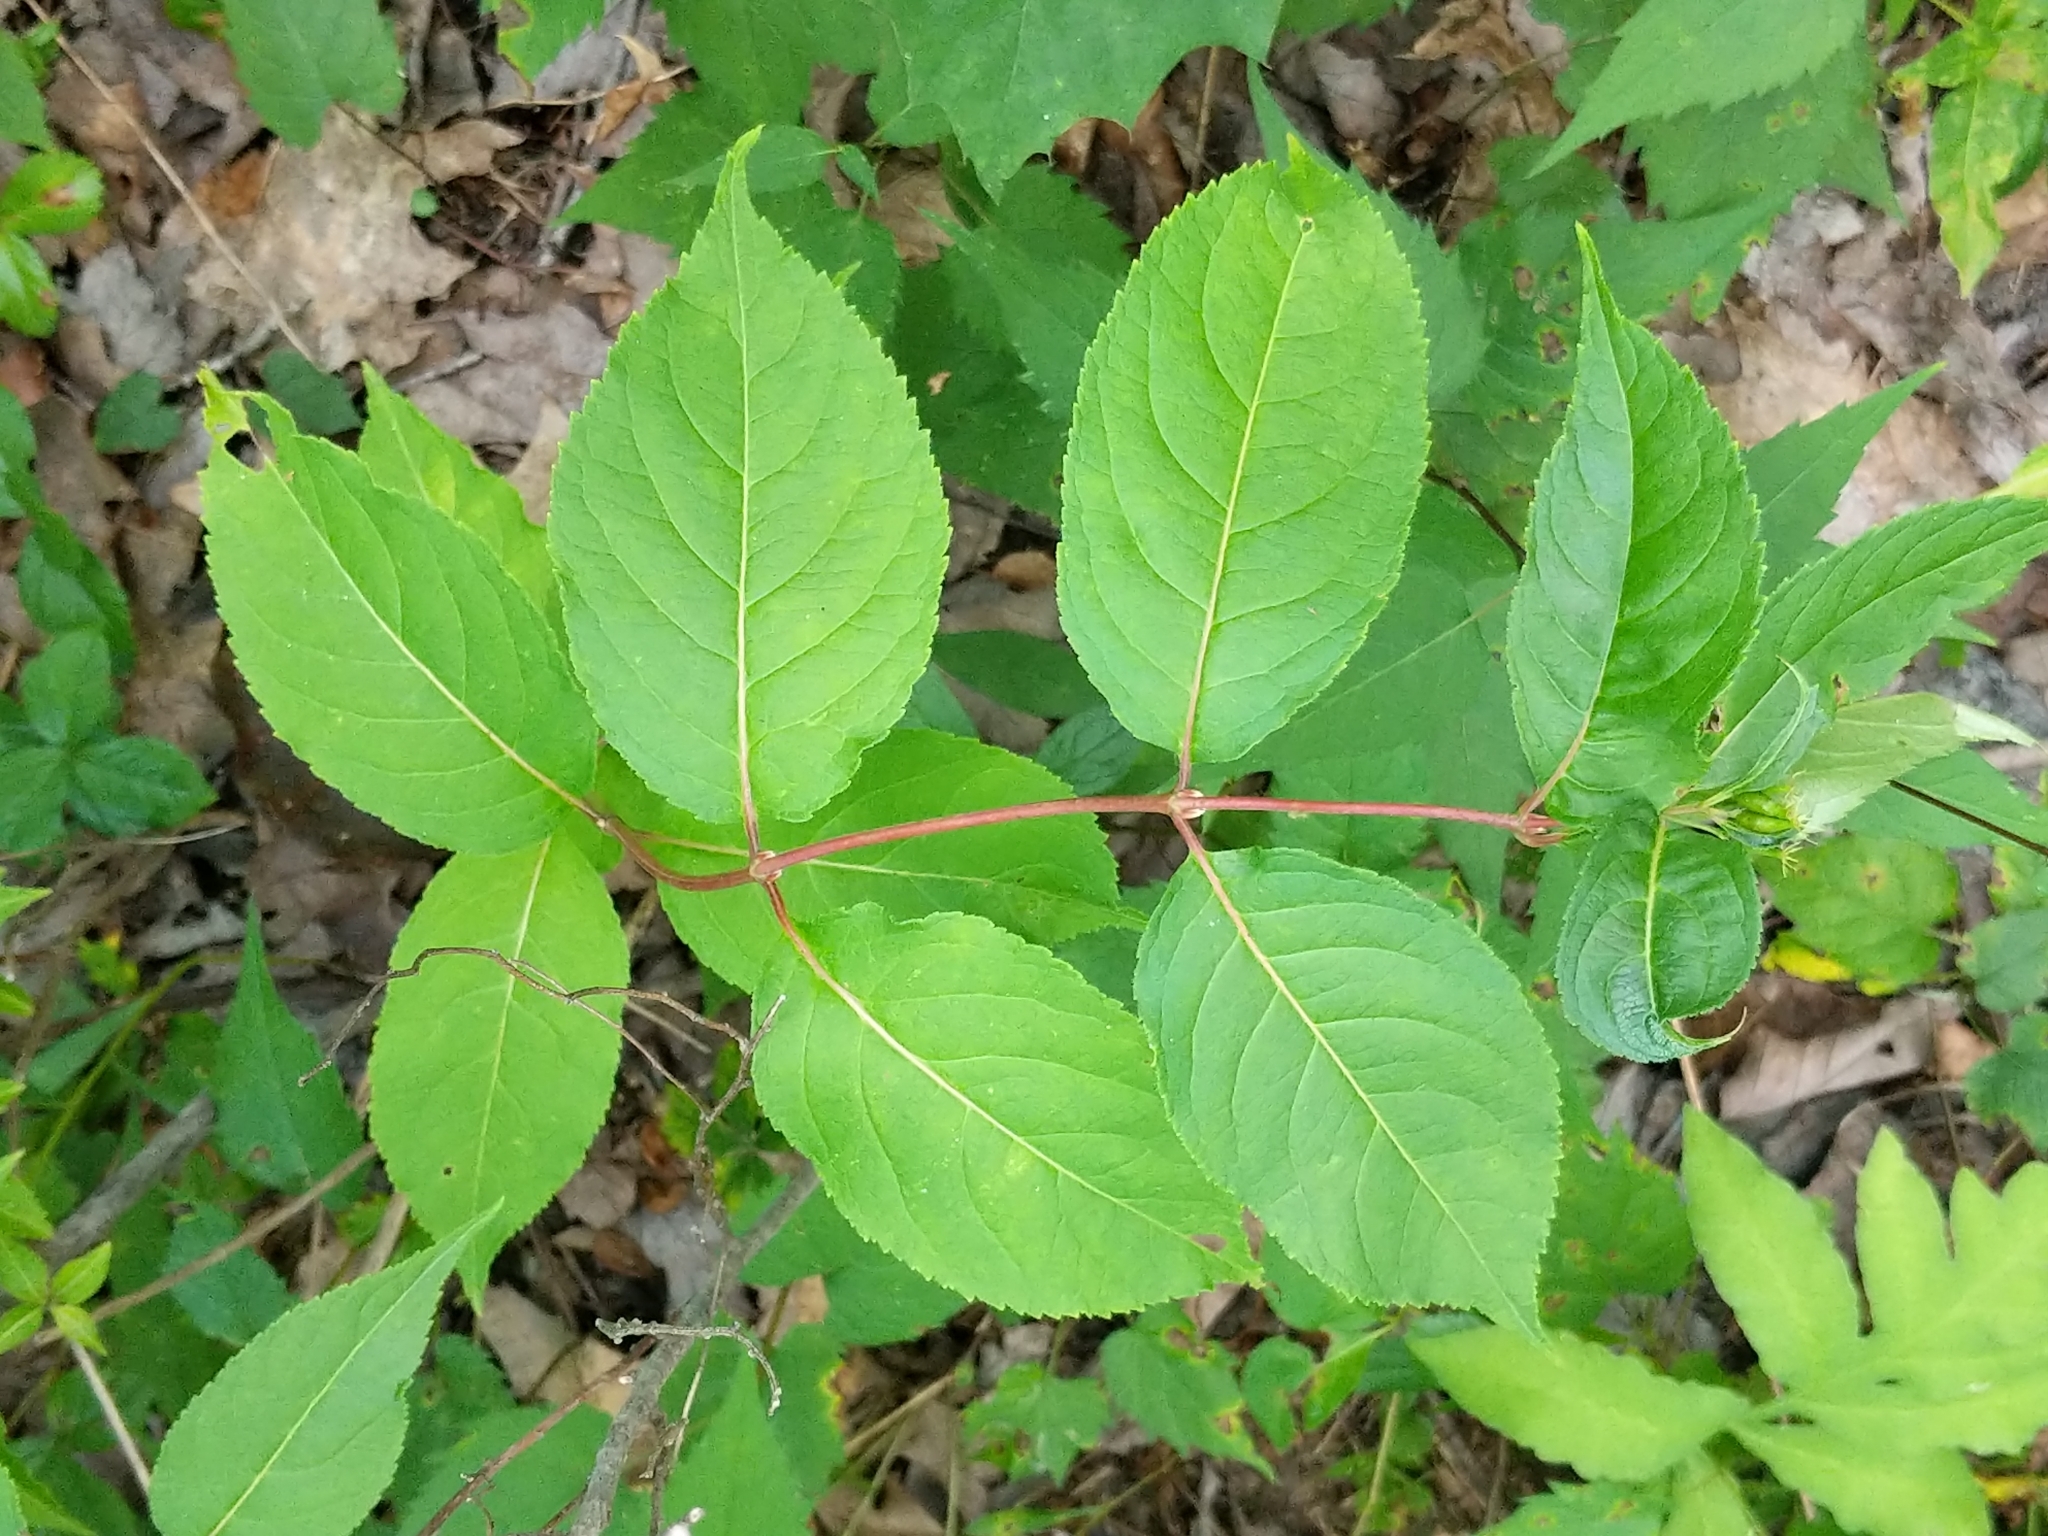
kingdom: Plantae
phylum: Tracheophyta
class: Magnoliopsida
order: Dipsacales
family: Caprifoliaceae
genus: Diervilla
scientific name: Diervilla lonicera
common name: Bush-honeysuckle
